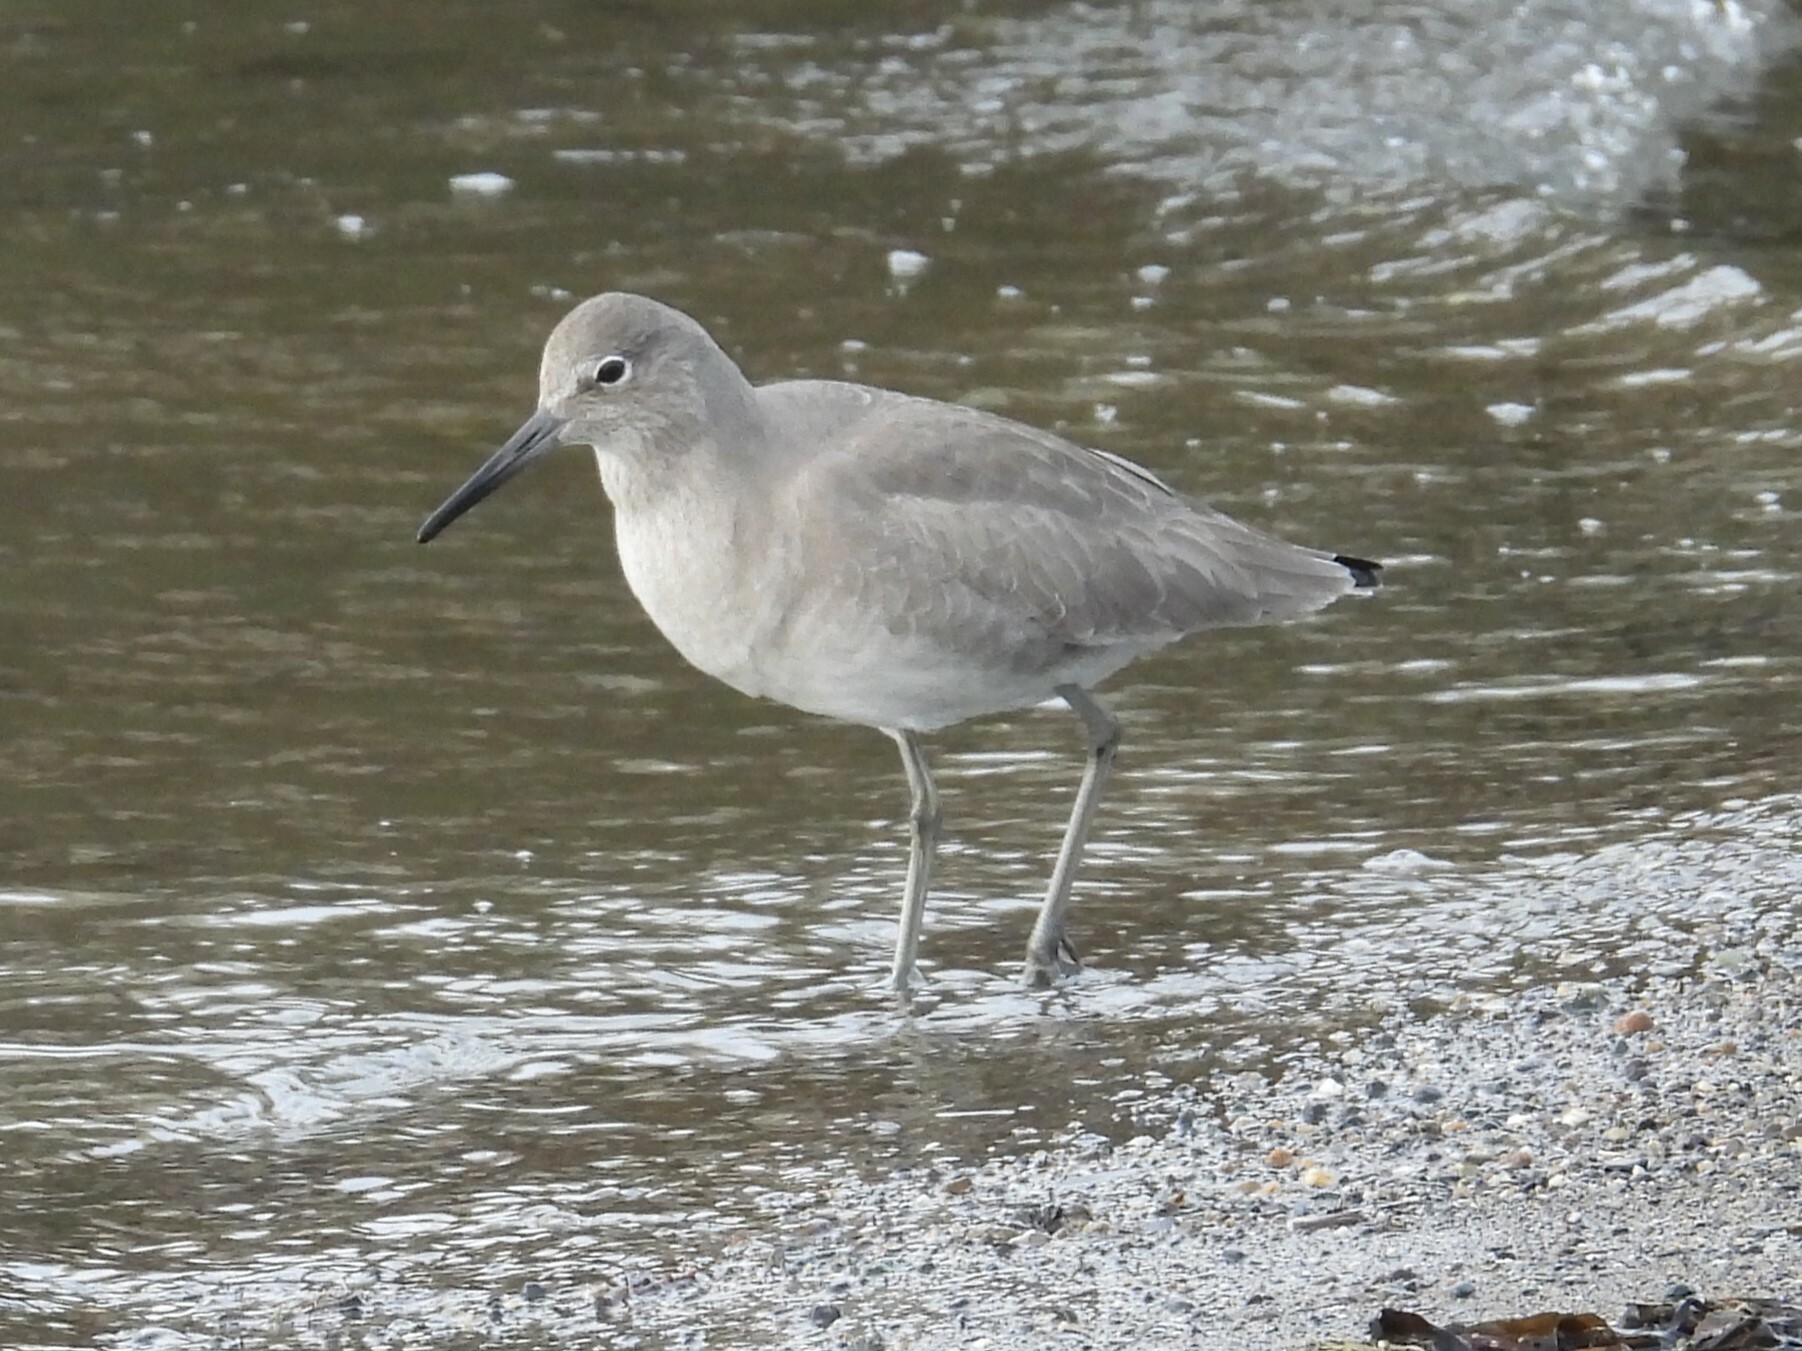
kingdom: Animalia
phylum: Chordata
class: Aves
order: Charadriiformes
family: Scolopacidae
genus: Tringa
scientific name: Tringa semipalmata
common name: Willet
